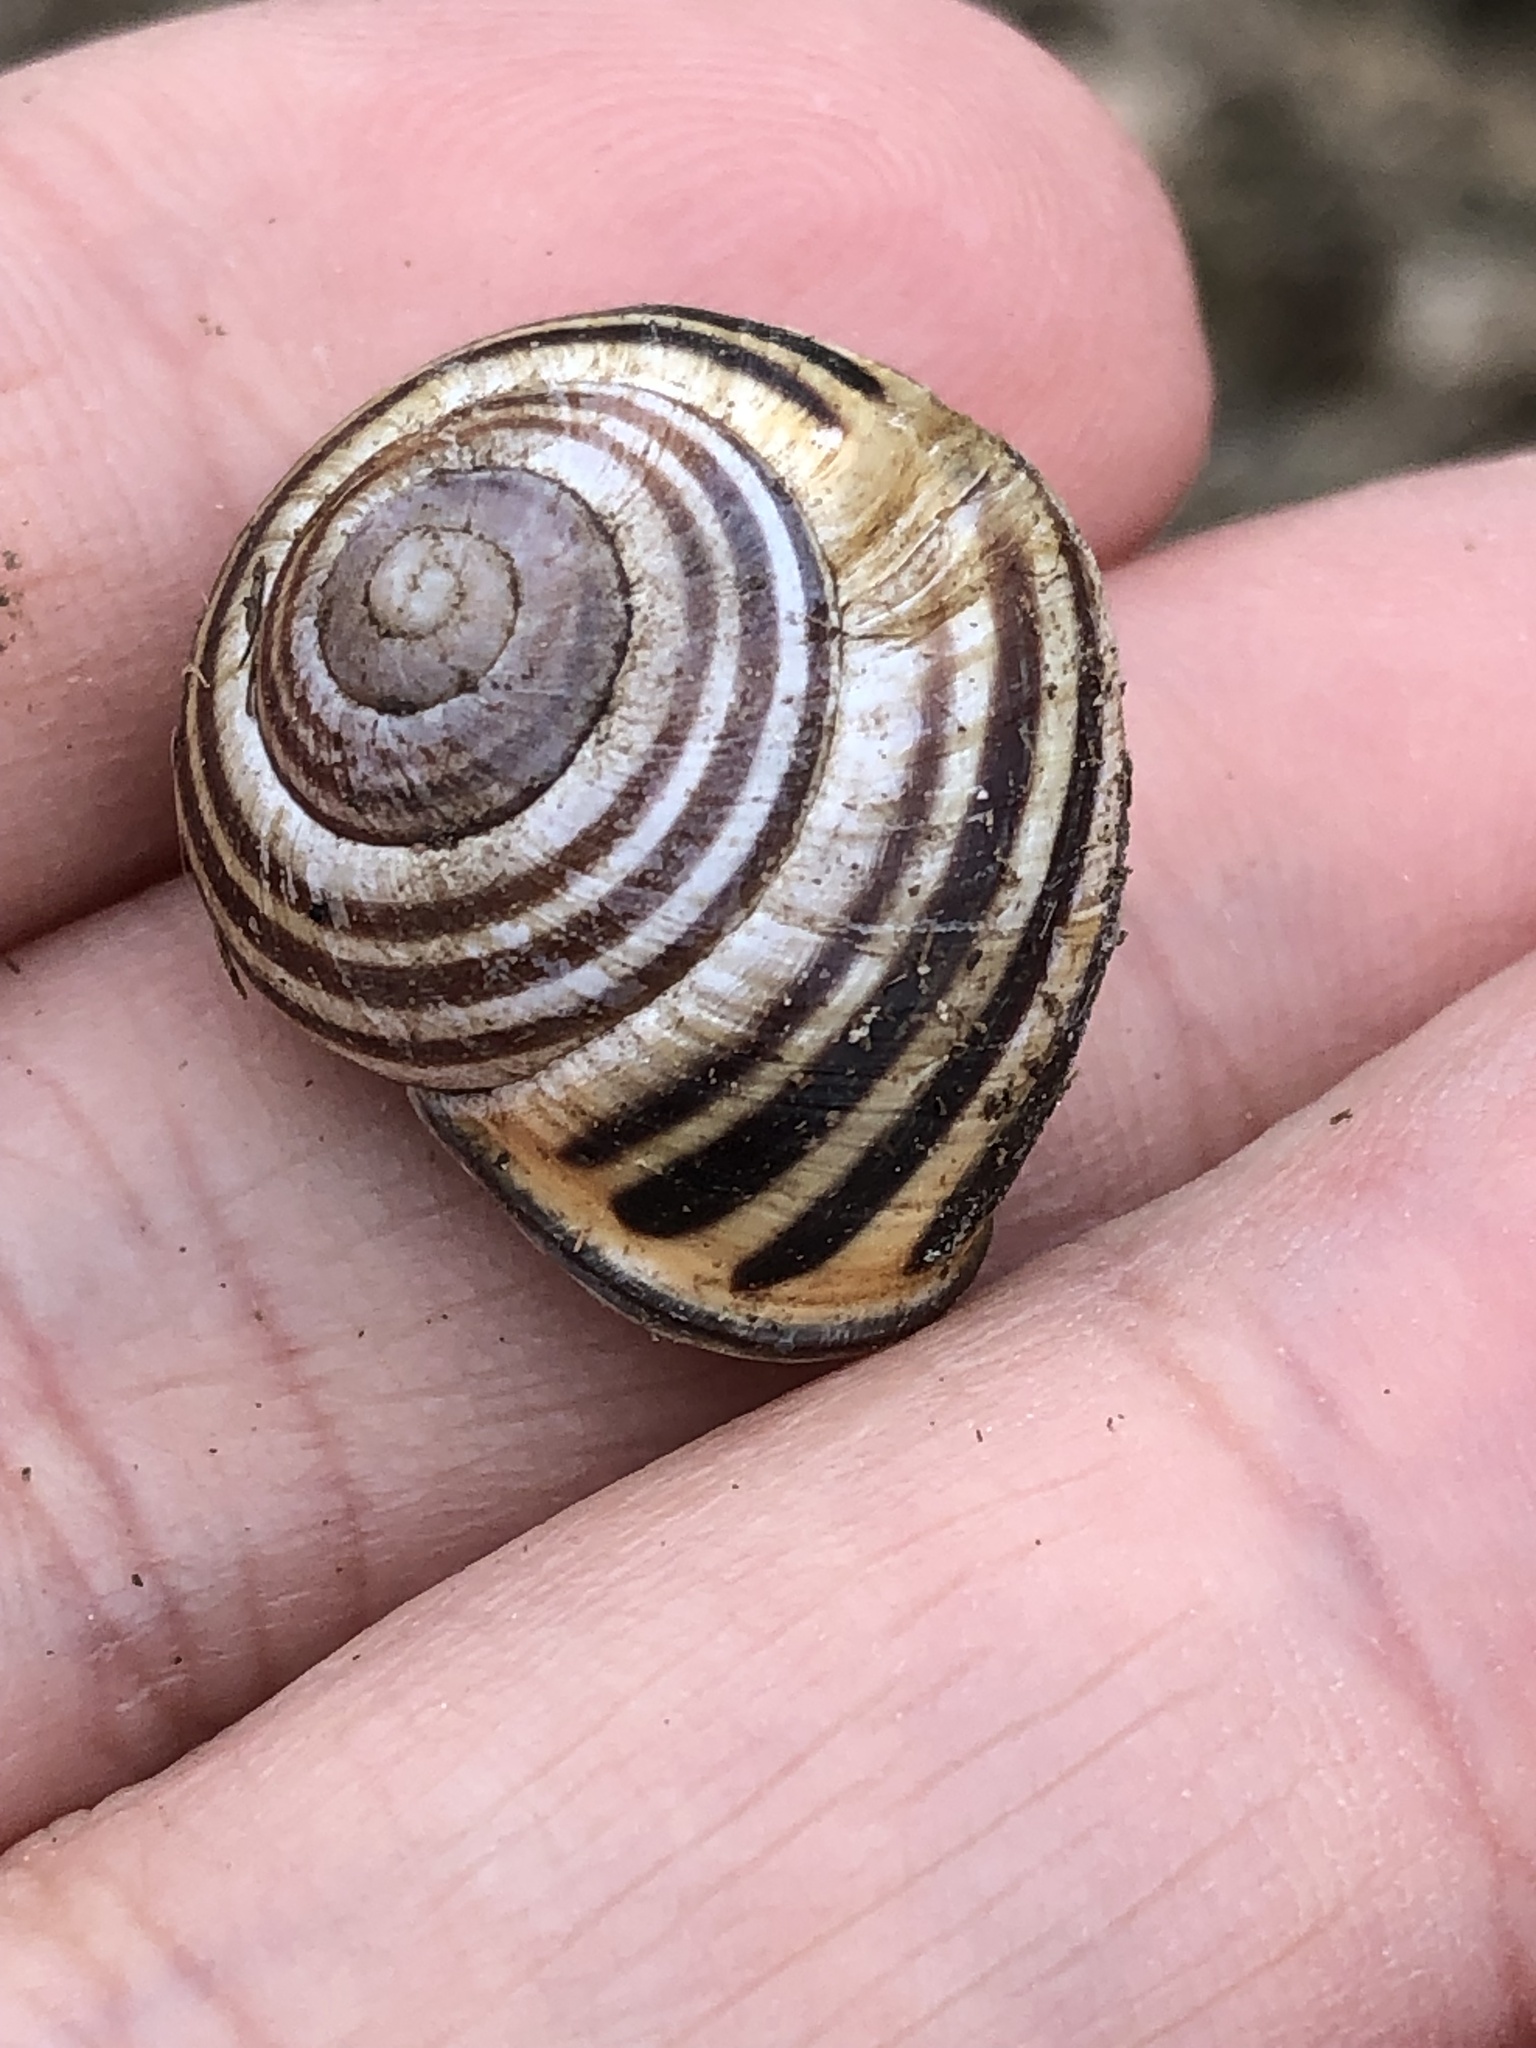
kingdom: Animalia
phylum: Mollusca
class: Gastropoda
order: Stylommatophora
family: Helicidae
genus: Cepaea
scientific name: Cepaea nemoralis
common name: Grovesnail
